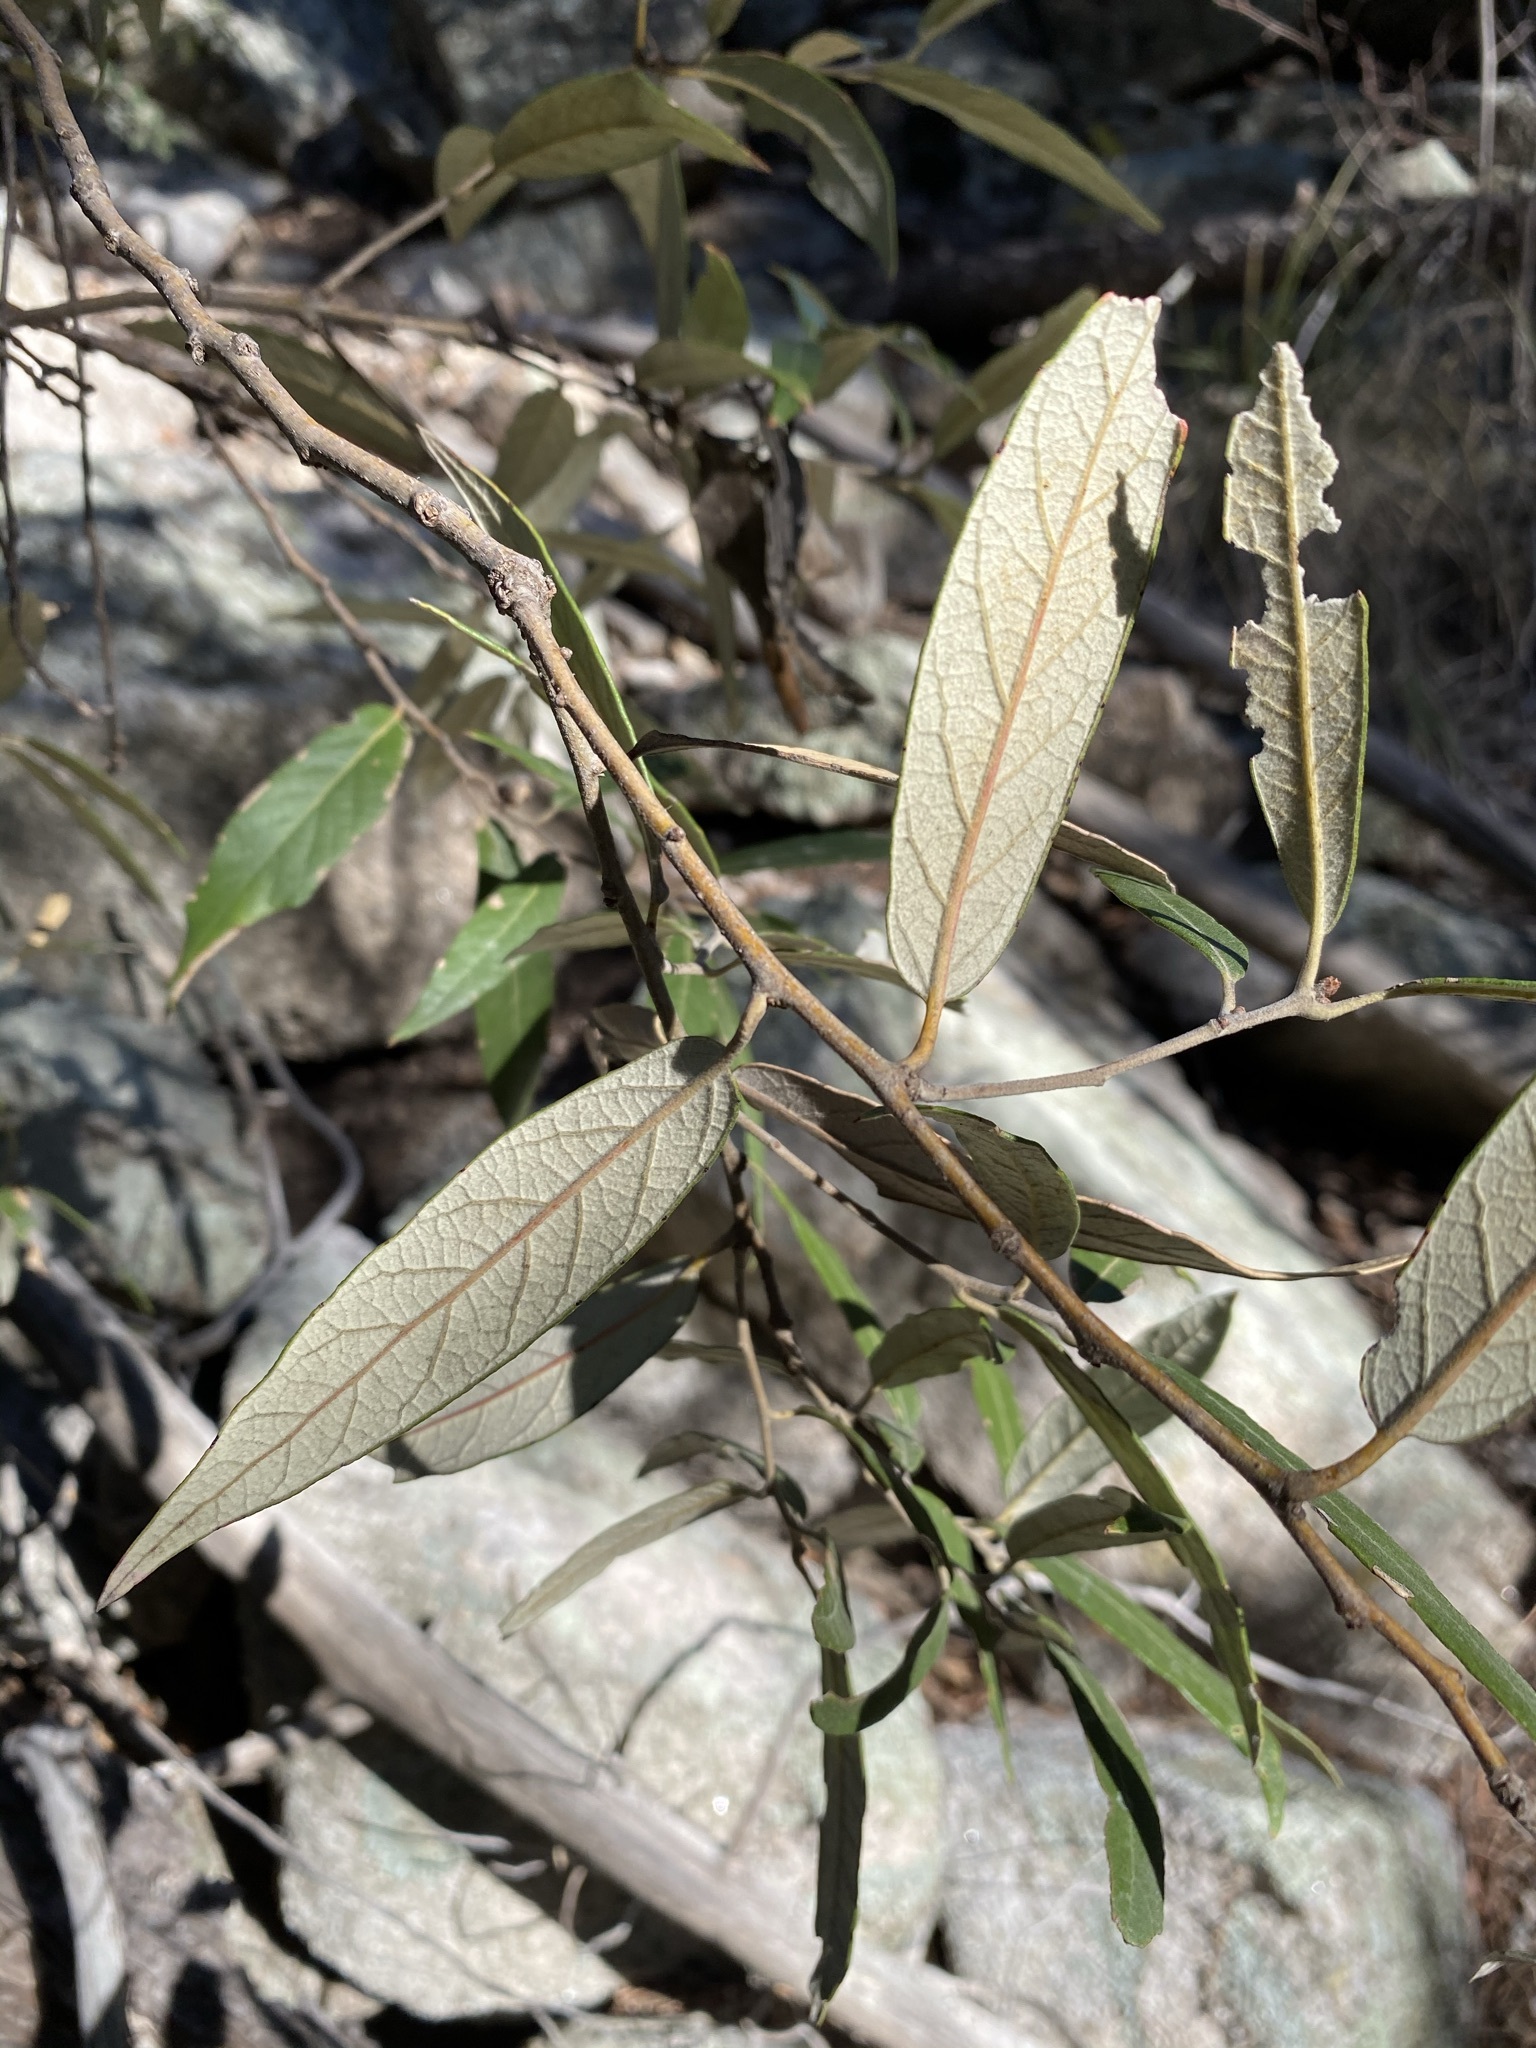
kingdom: Plantae
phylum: Tracheophyta
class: Magnoliopsida
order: Fagales
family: Fagaceae
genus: Quercus
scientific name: Quercus hypoleucoides
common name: Silverleaf oak
